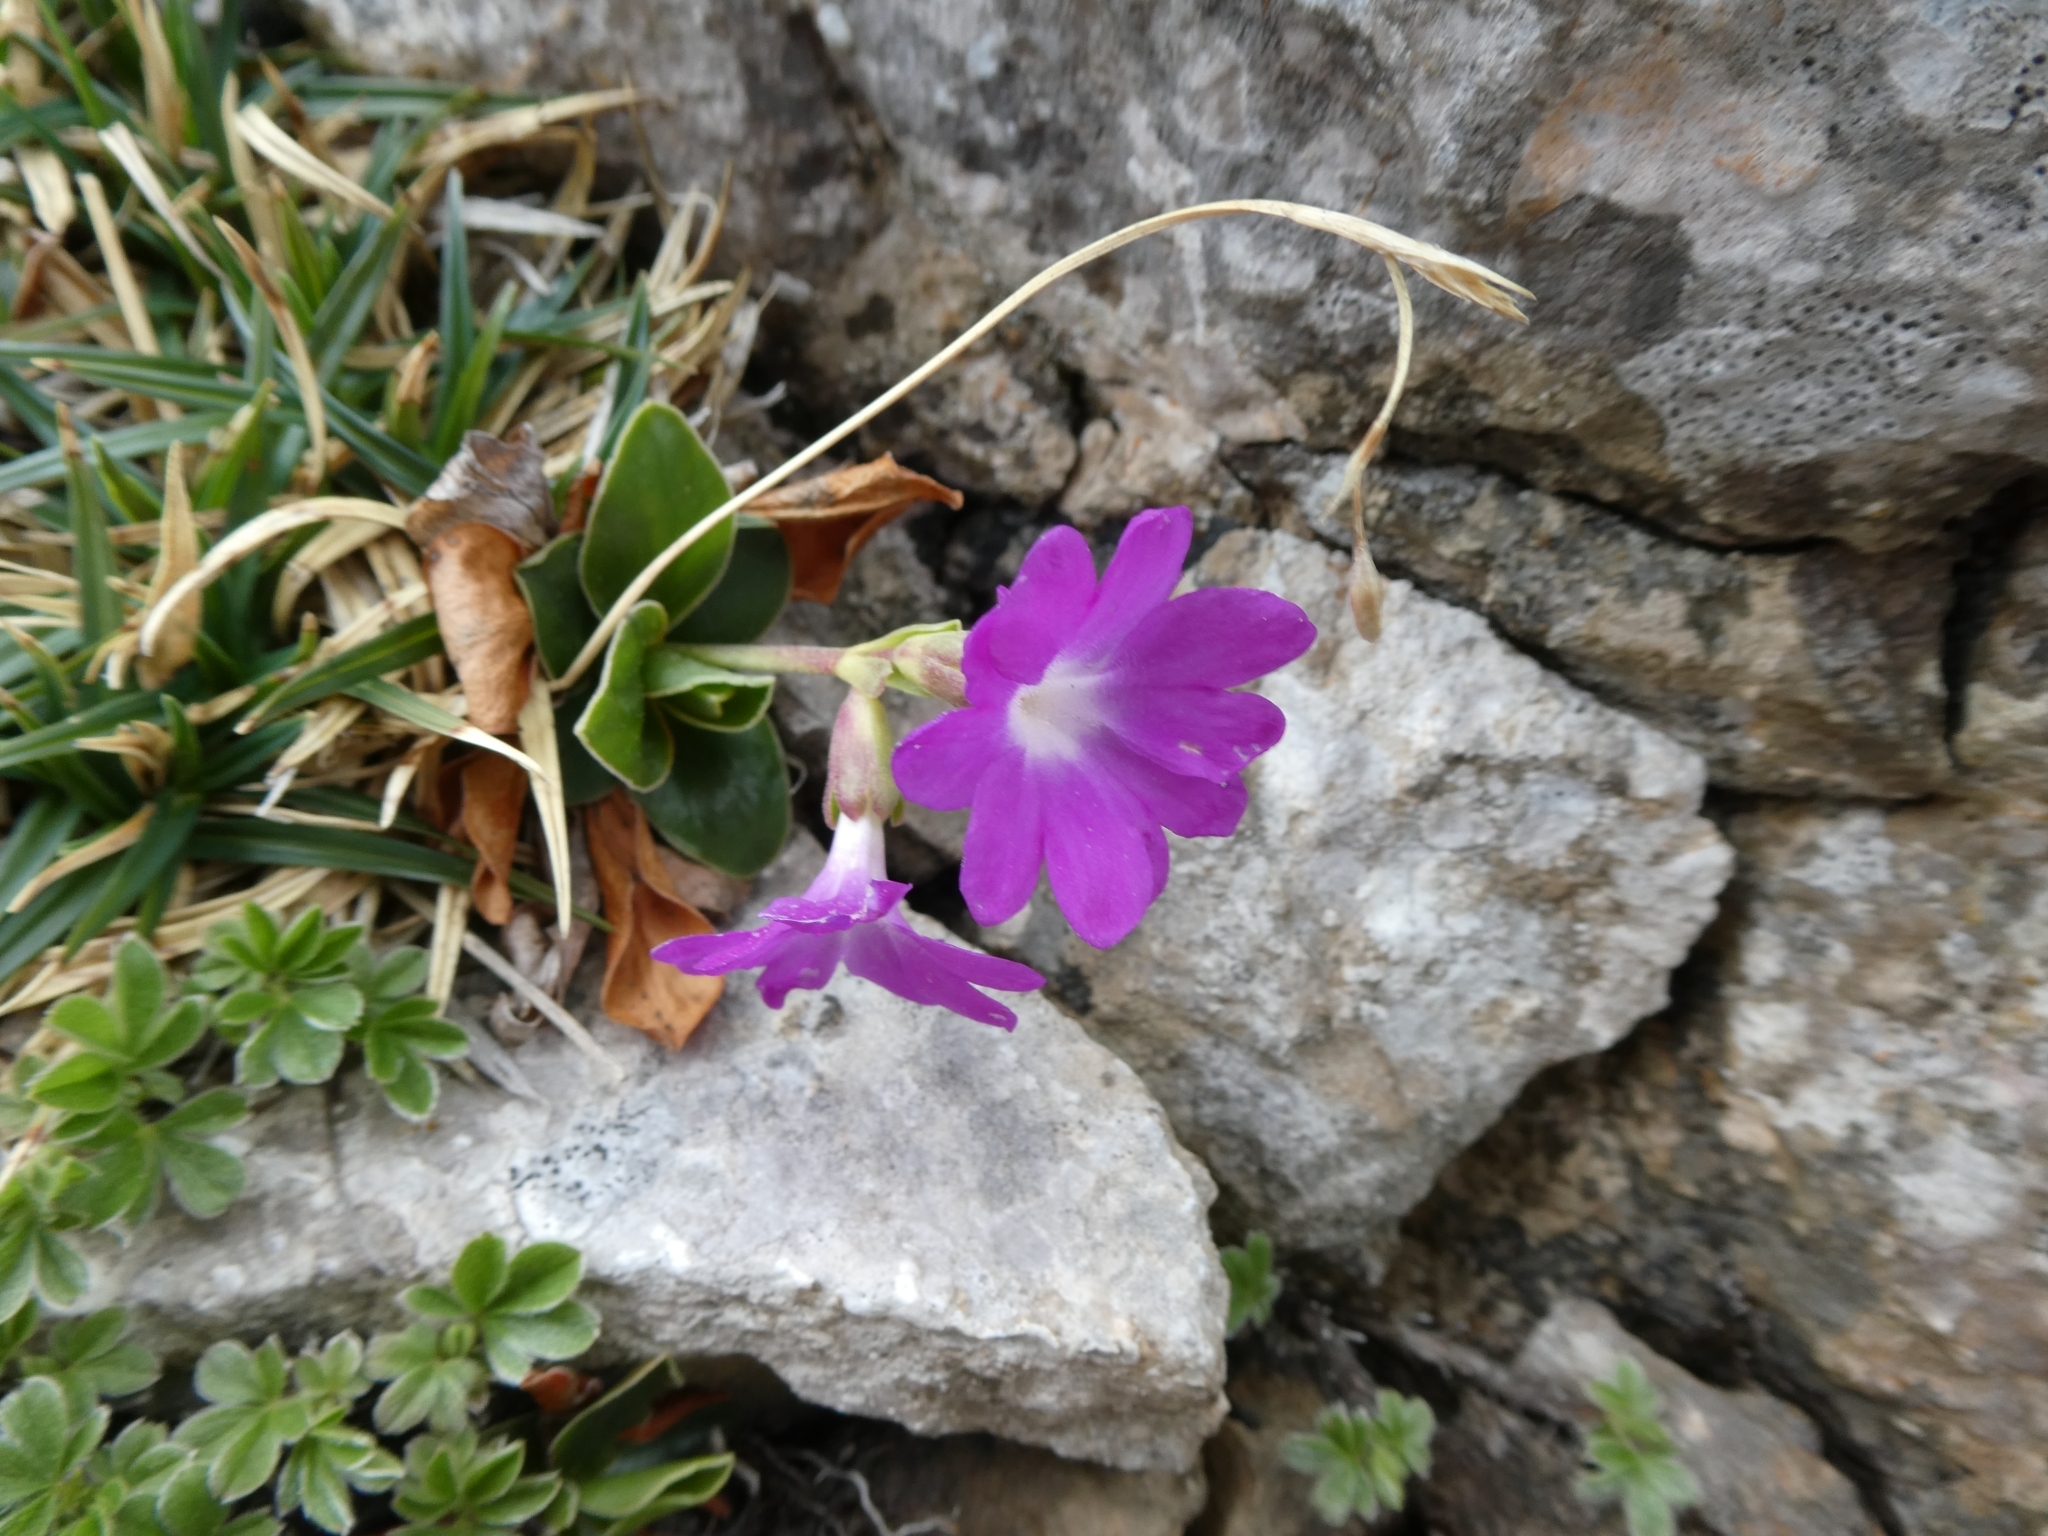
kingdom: Plantae
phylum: Tracheophyta
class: Magnoliopsida
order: Ericales
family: Primulaceae
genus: Primula
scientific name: Primula clusiana
